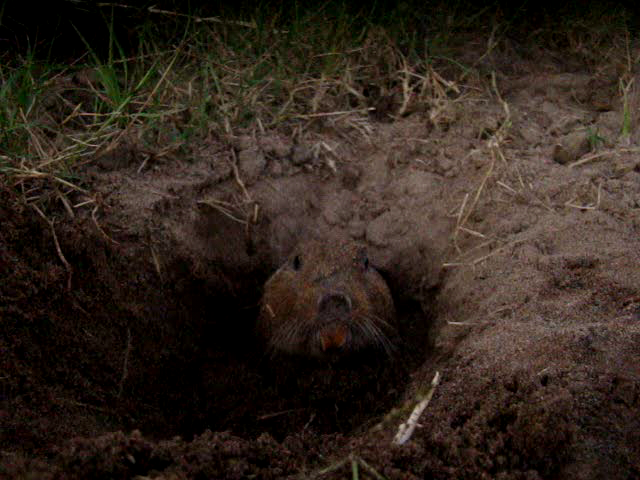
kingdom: Animalia
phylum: Chordata
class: Mammalia
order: Rodentia
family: Ctenomyidae
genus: Ctenomys
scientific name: Ctenomys torquatus
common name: Collared tuco-tuco
